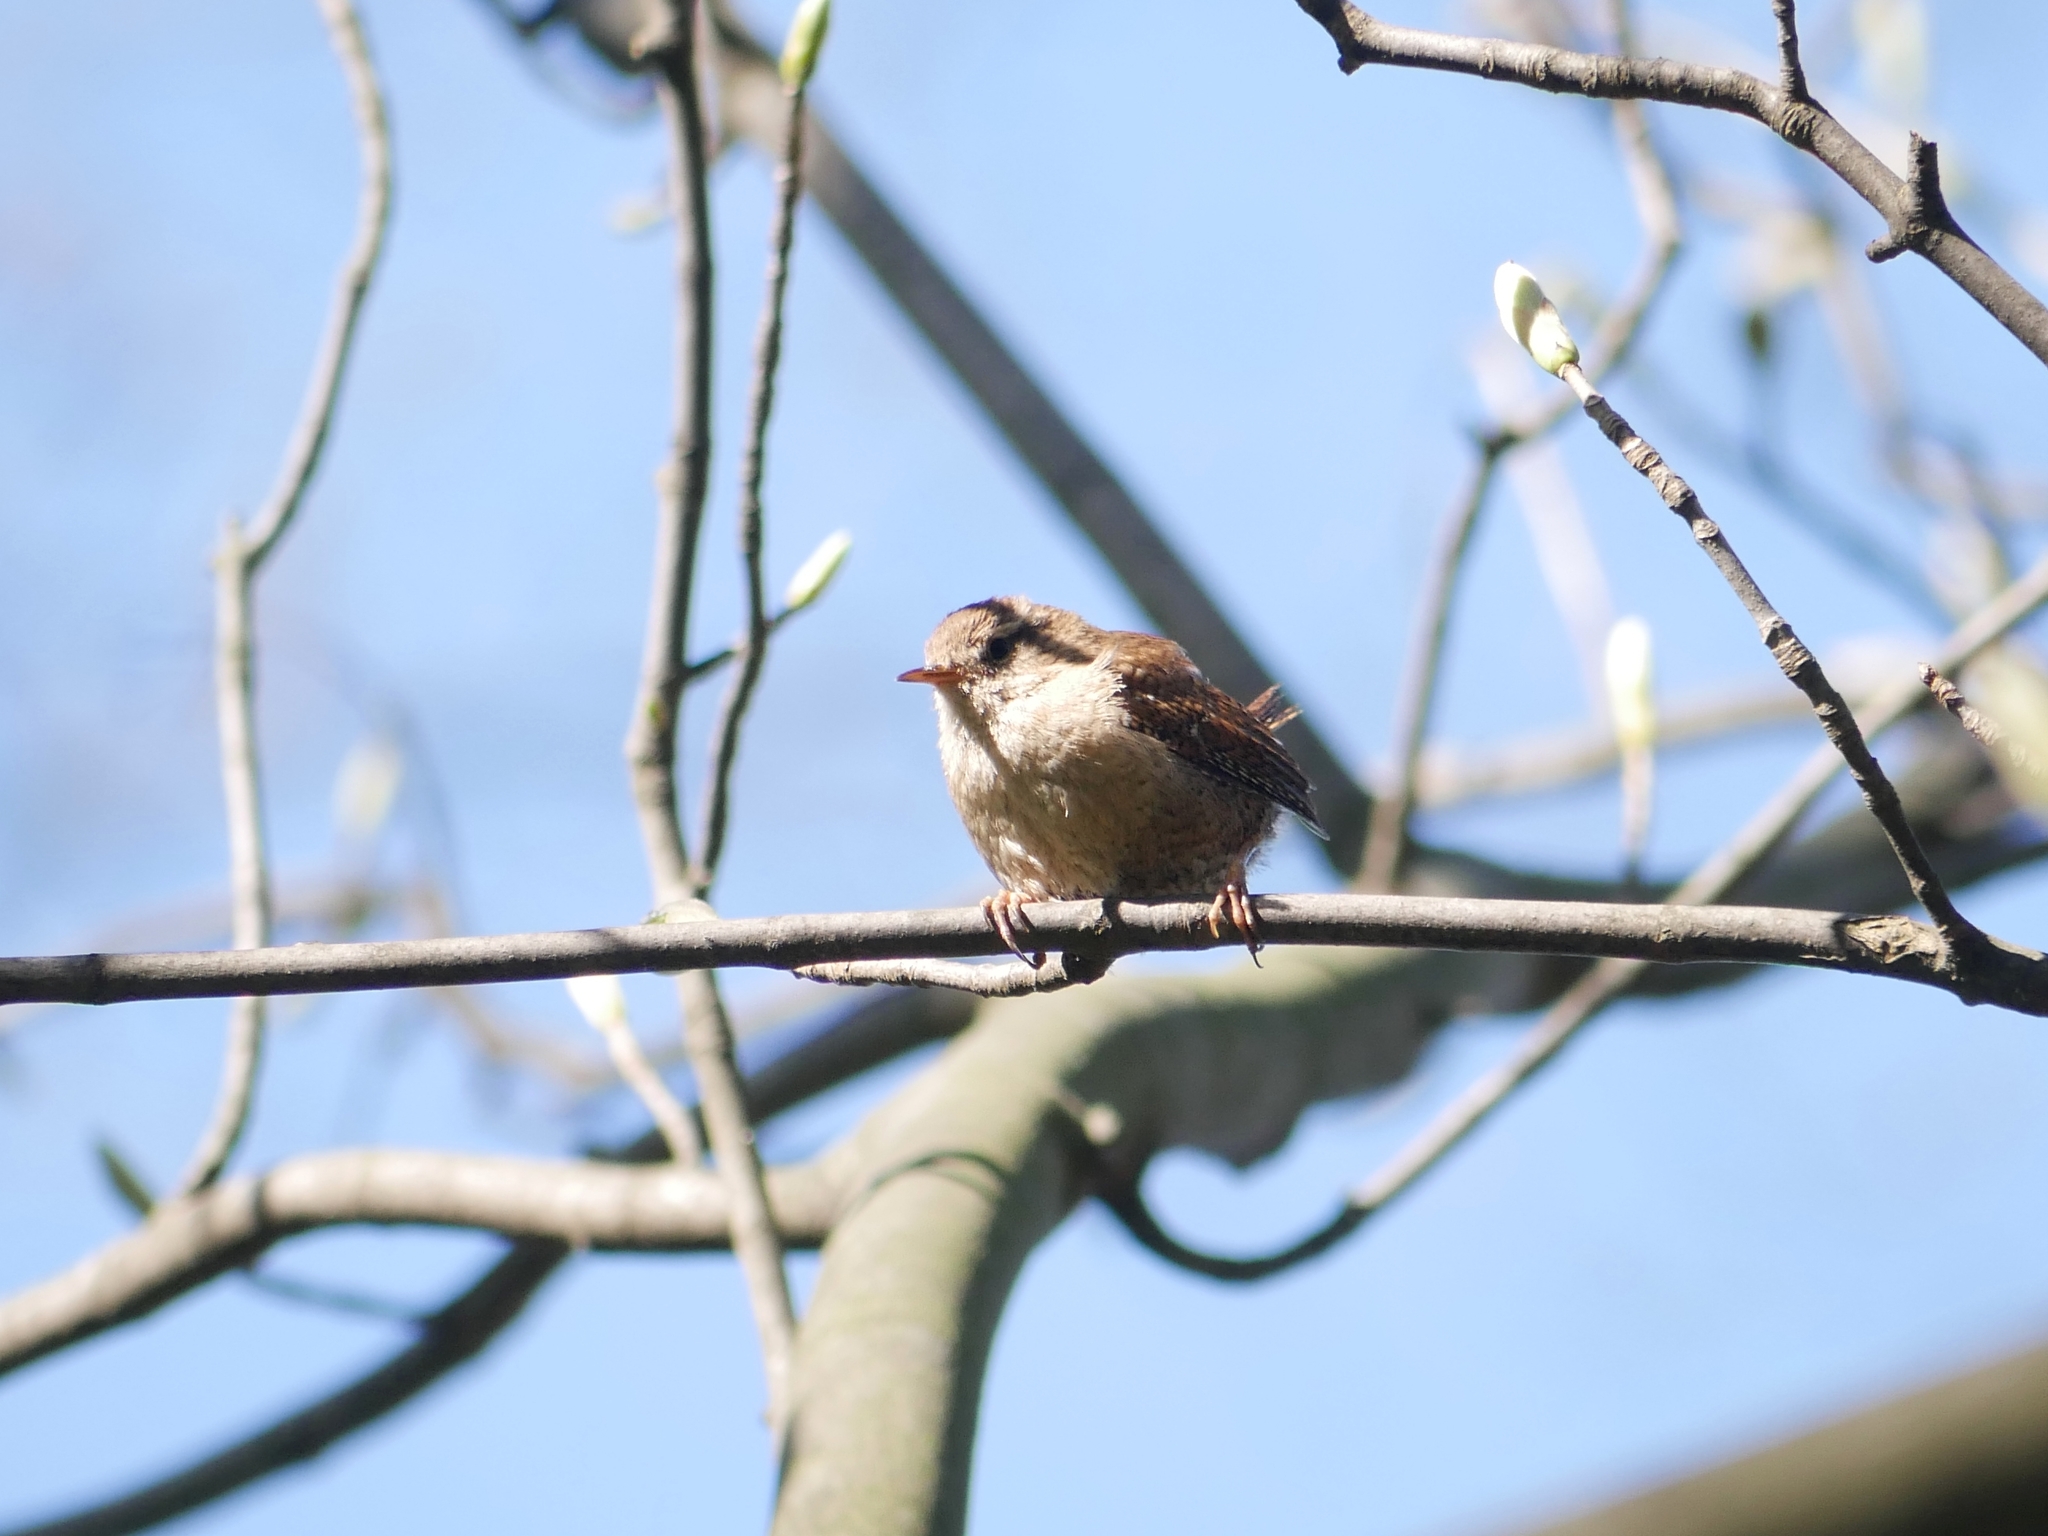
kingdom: Animalia
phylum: Chordata
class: Aves
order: Passeriformes
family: Troglodytidae
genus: Troglodytes
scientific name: Troglodytes troglodytes
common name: Eurasian wren
